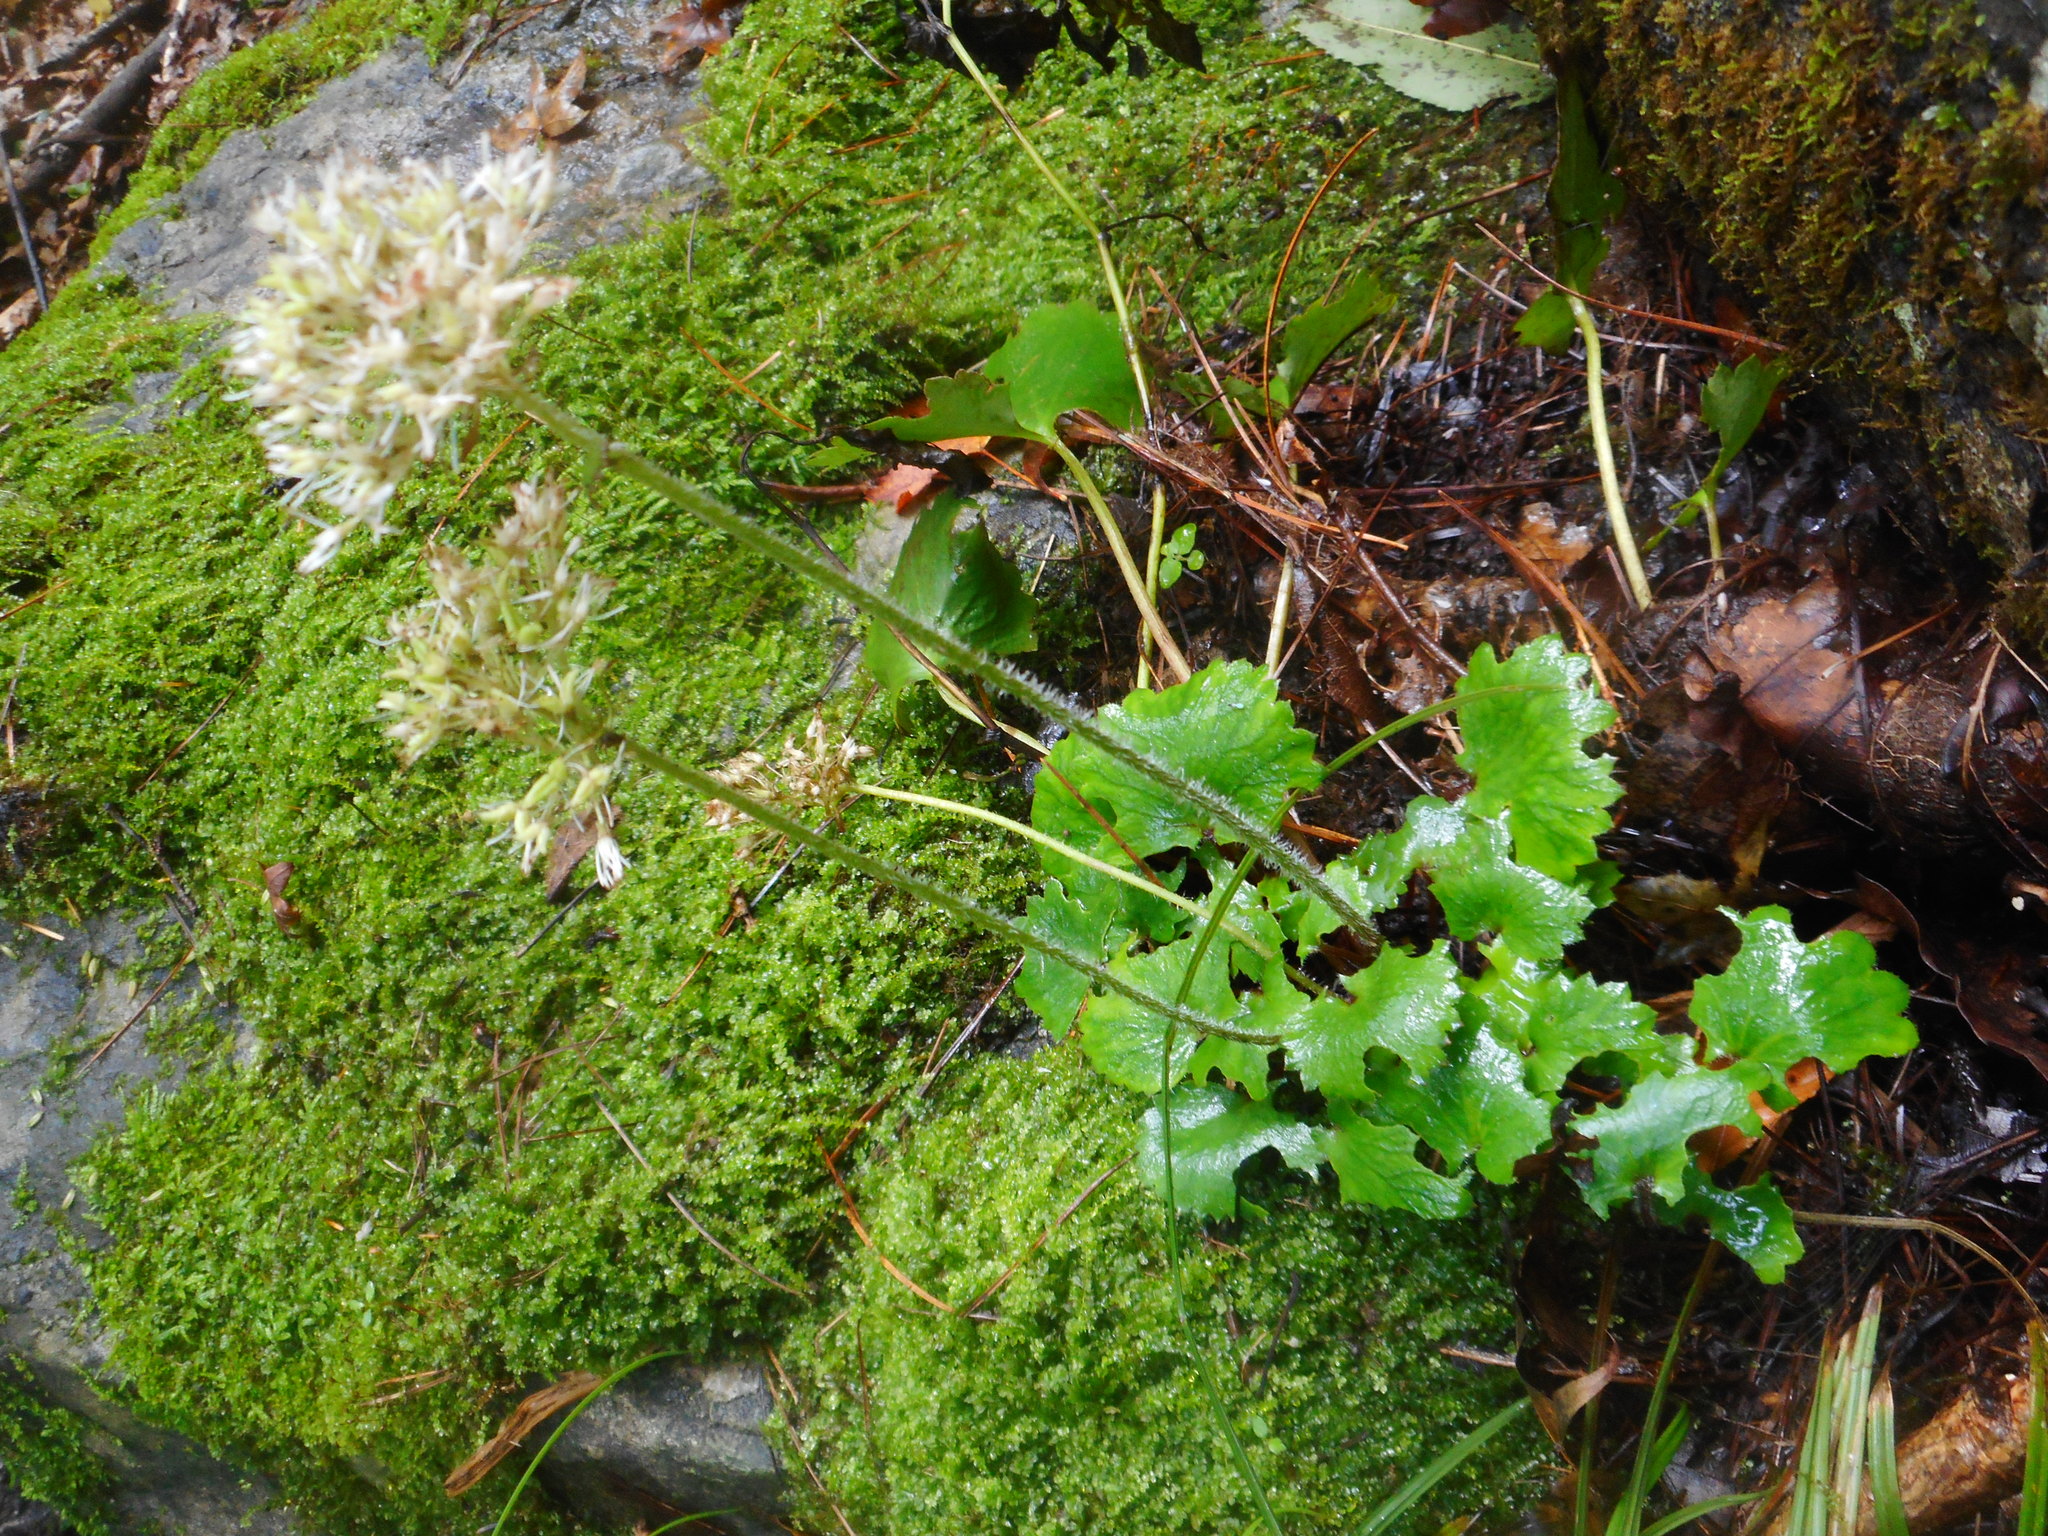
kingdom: Plantae
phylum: Tracheophyta
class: Magnoliopsida
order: Saxifragales
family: Saxifragaceae
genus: Micranthes
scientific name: Micranthes manchuriensis
